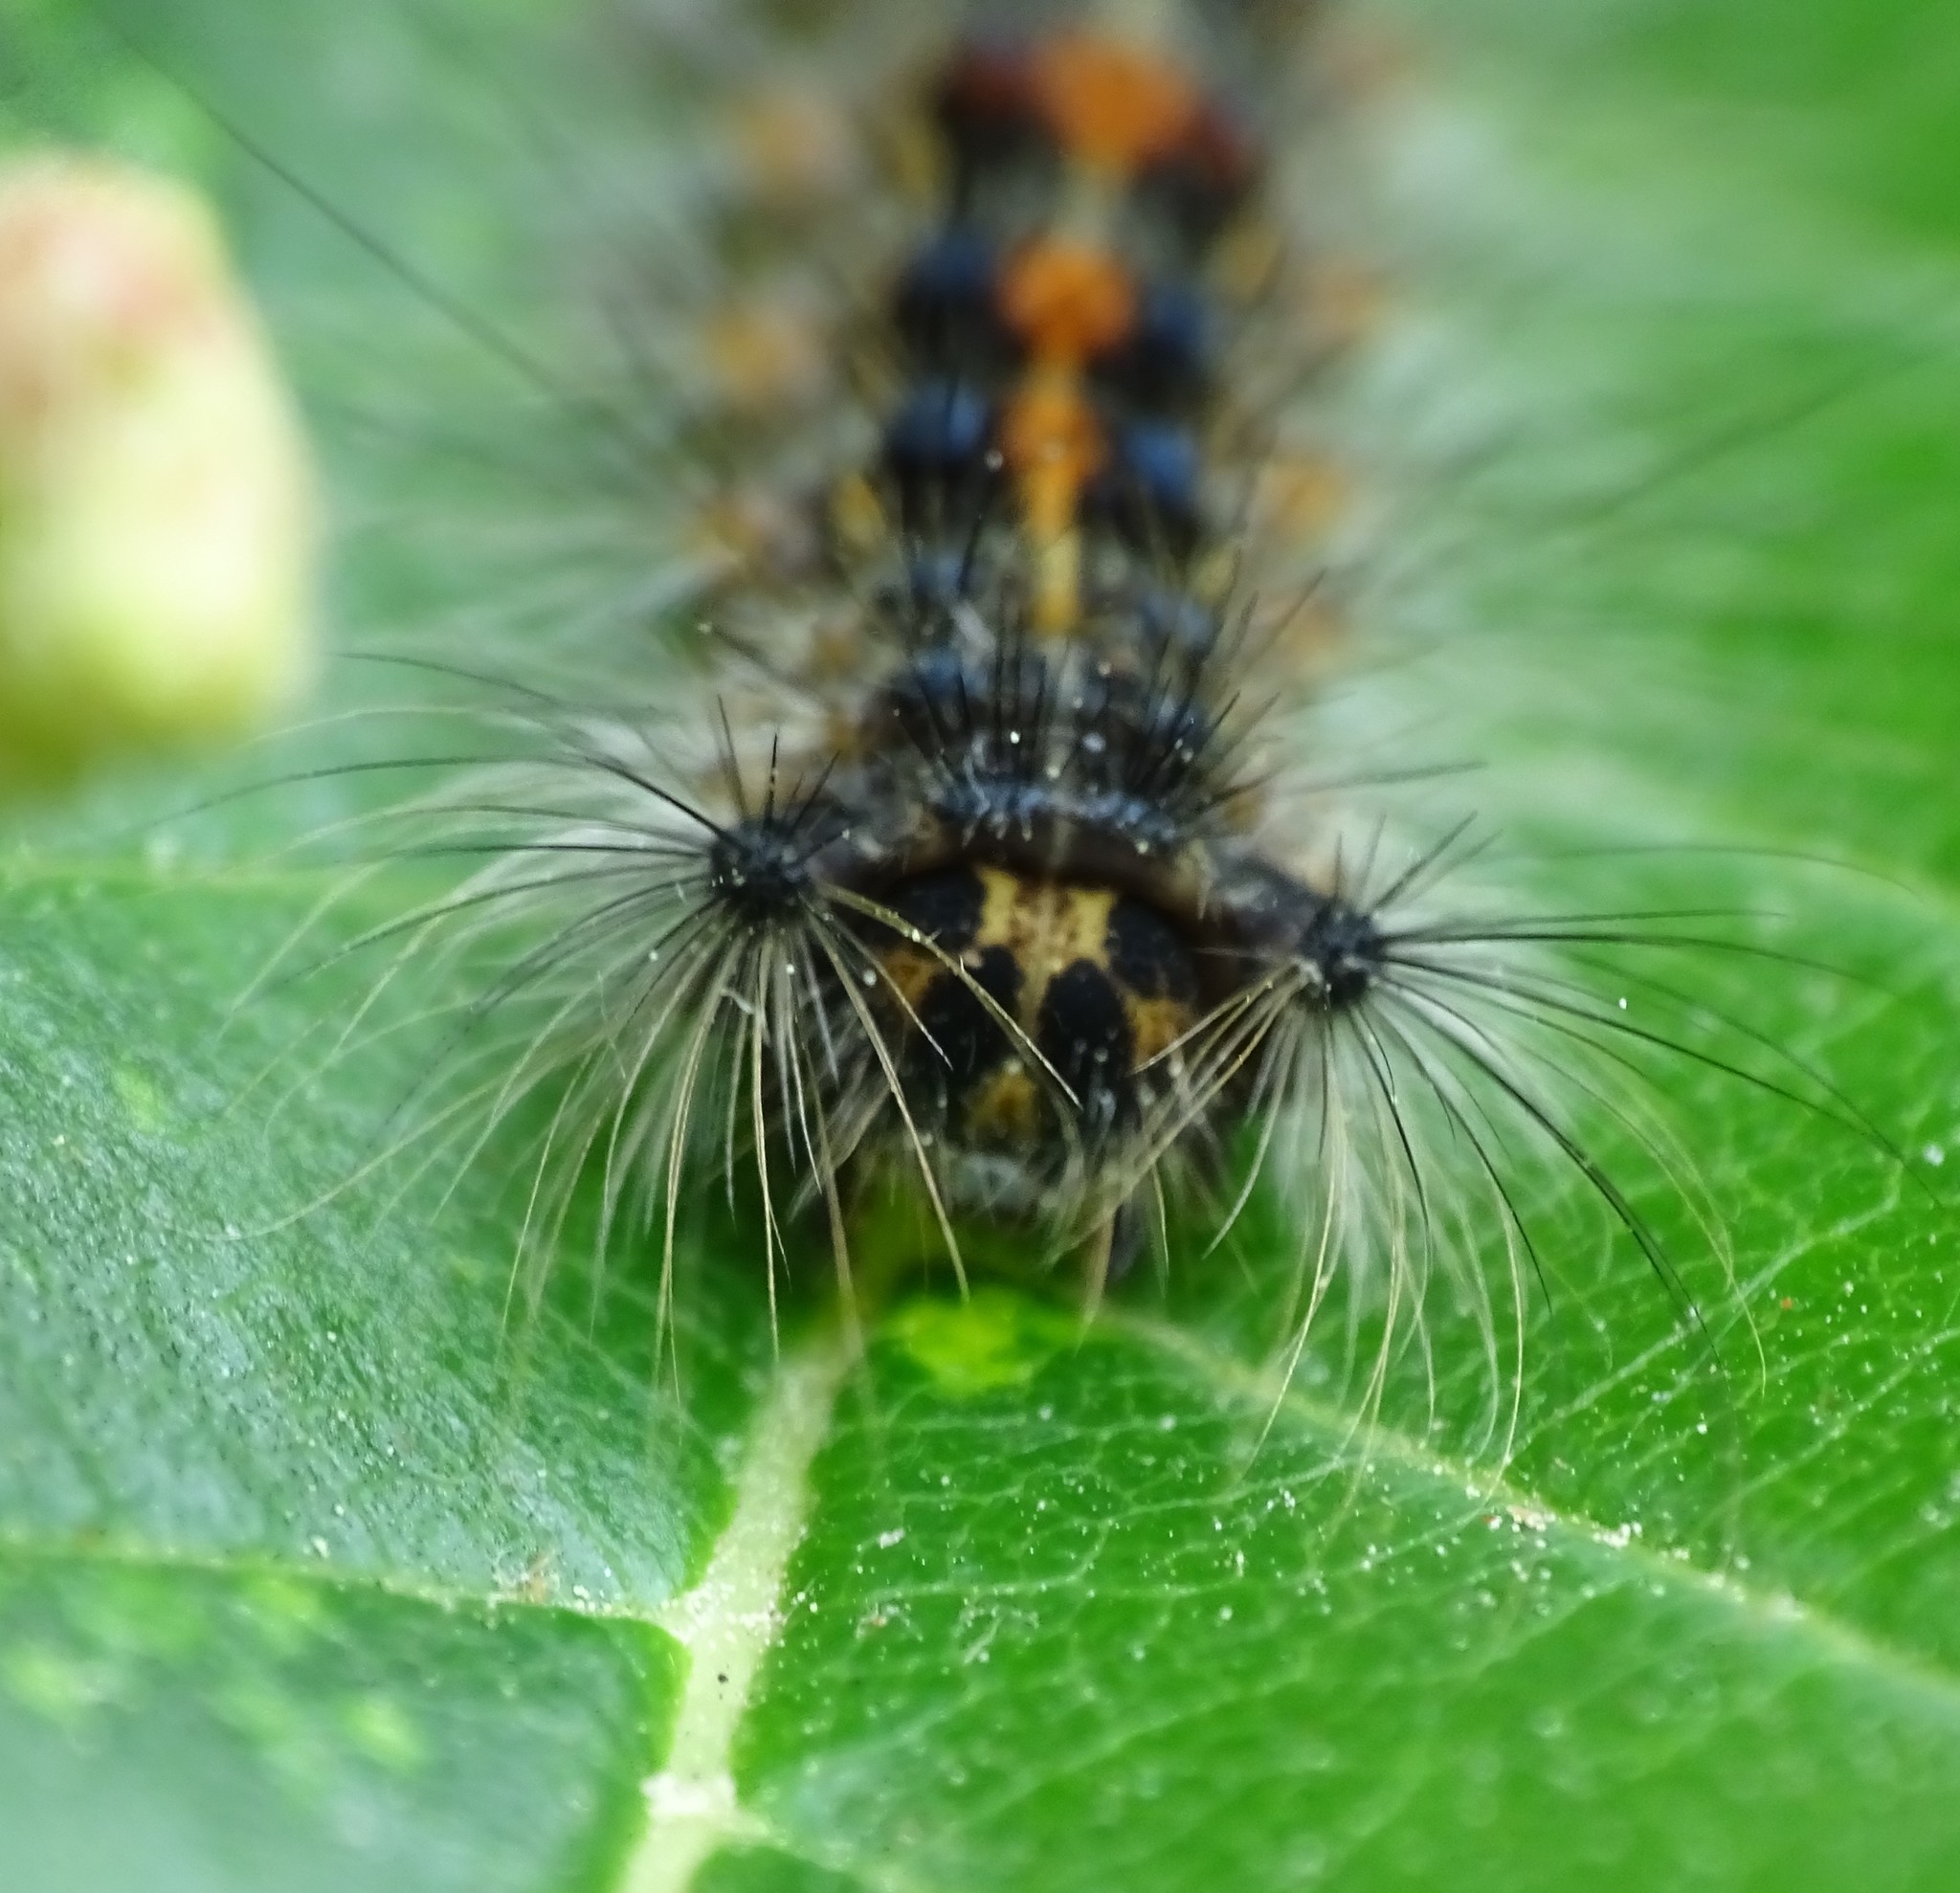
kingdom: Animalia
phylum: Arthropoda
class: Insecta
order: Lepidoptera
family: Erebidae
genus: Lymantria
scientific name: Lymantria dispar
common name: Gypsy moth
